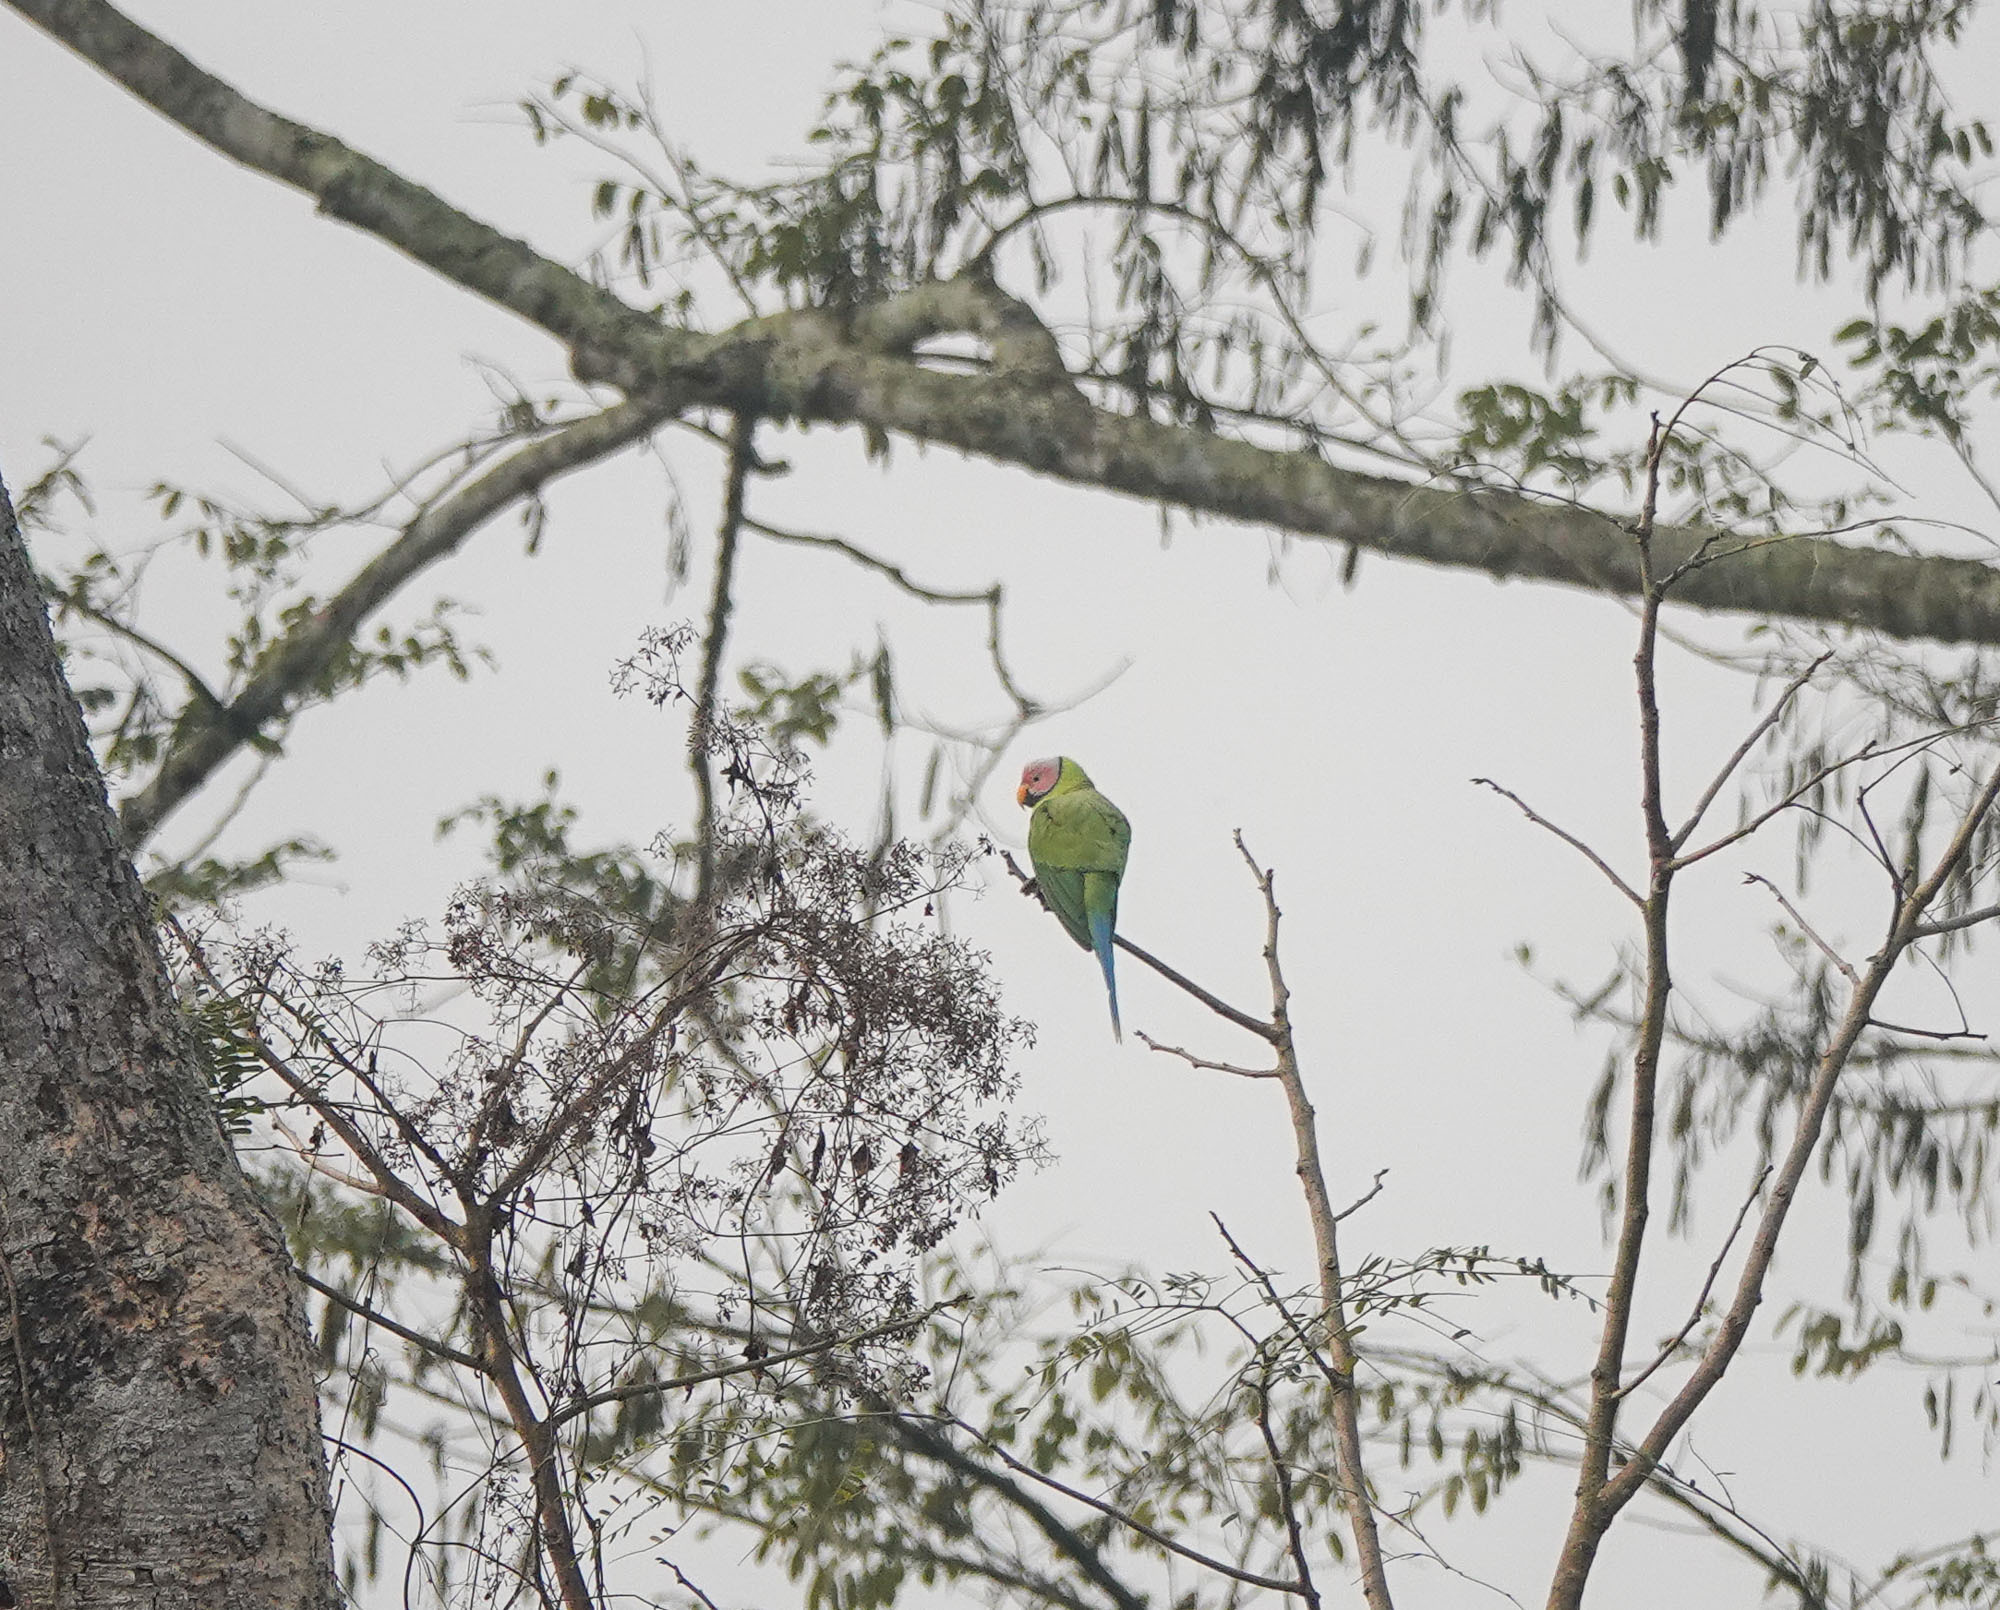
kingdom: Animalia
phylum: Chordata
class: Aves
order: Psittaciformes
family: Psittacidae
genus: Psittacula
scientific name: Psittacula roseata
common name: Blossom-headed parakeet
